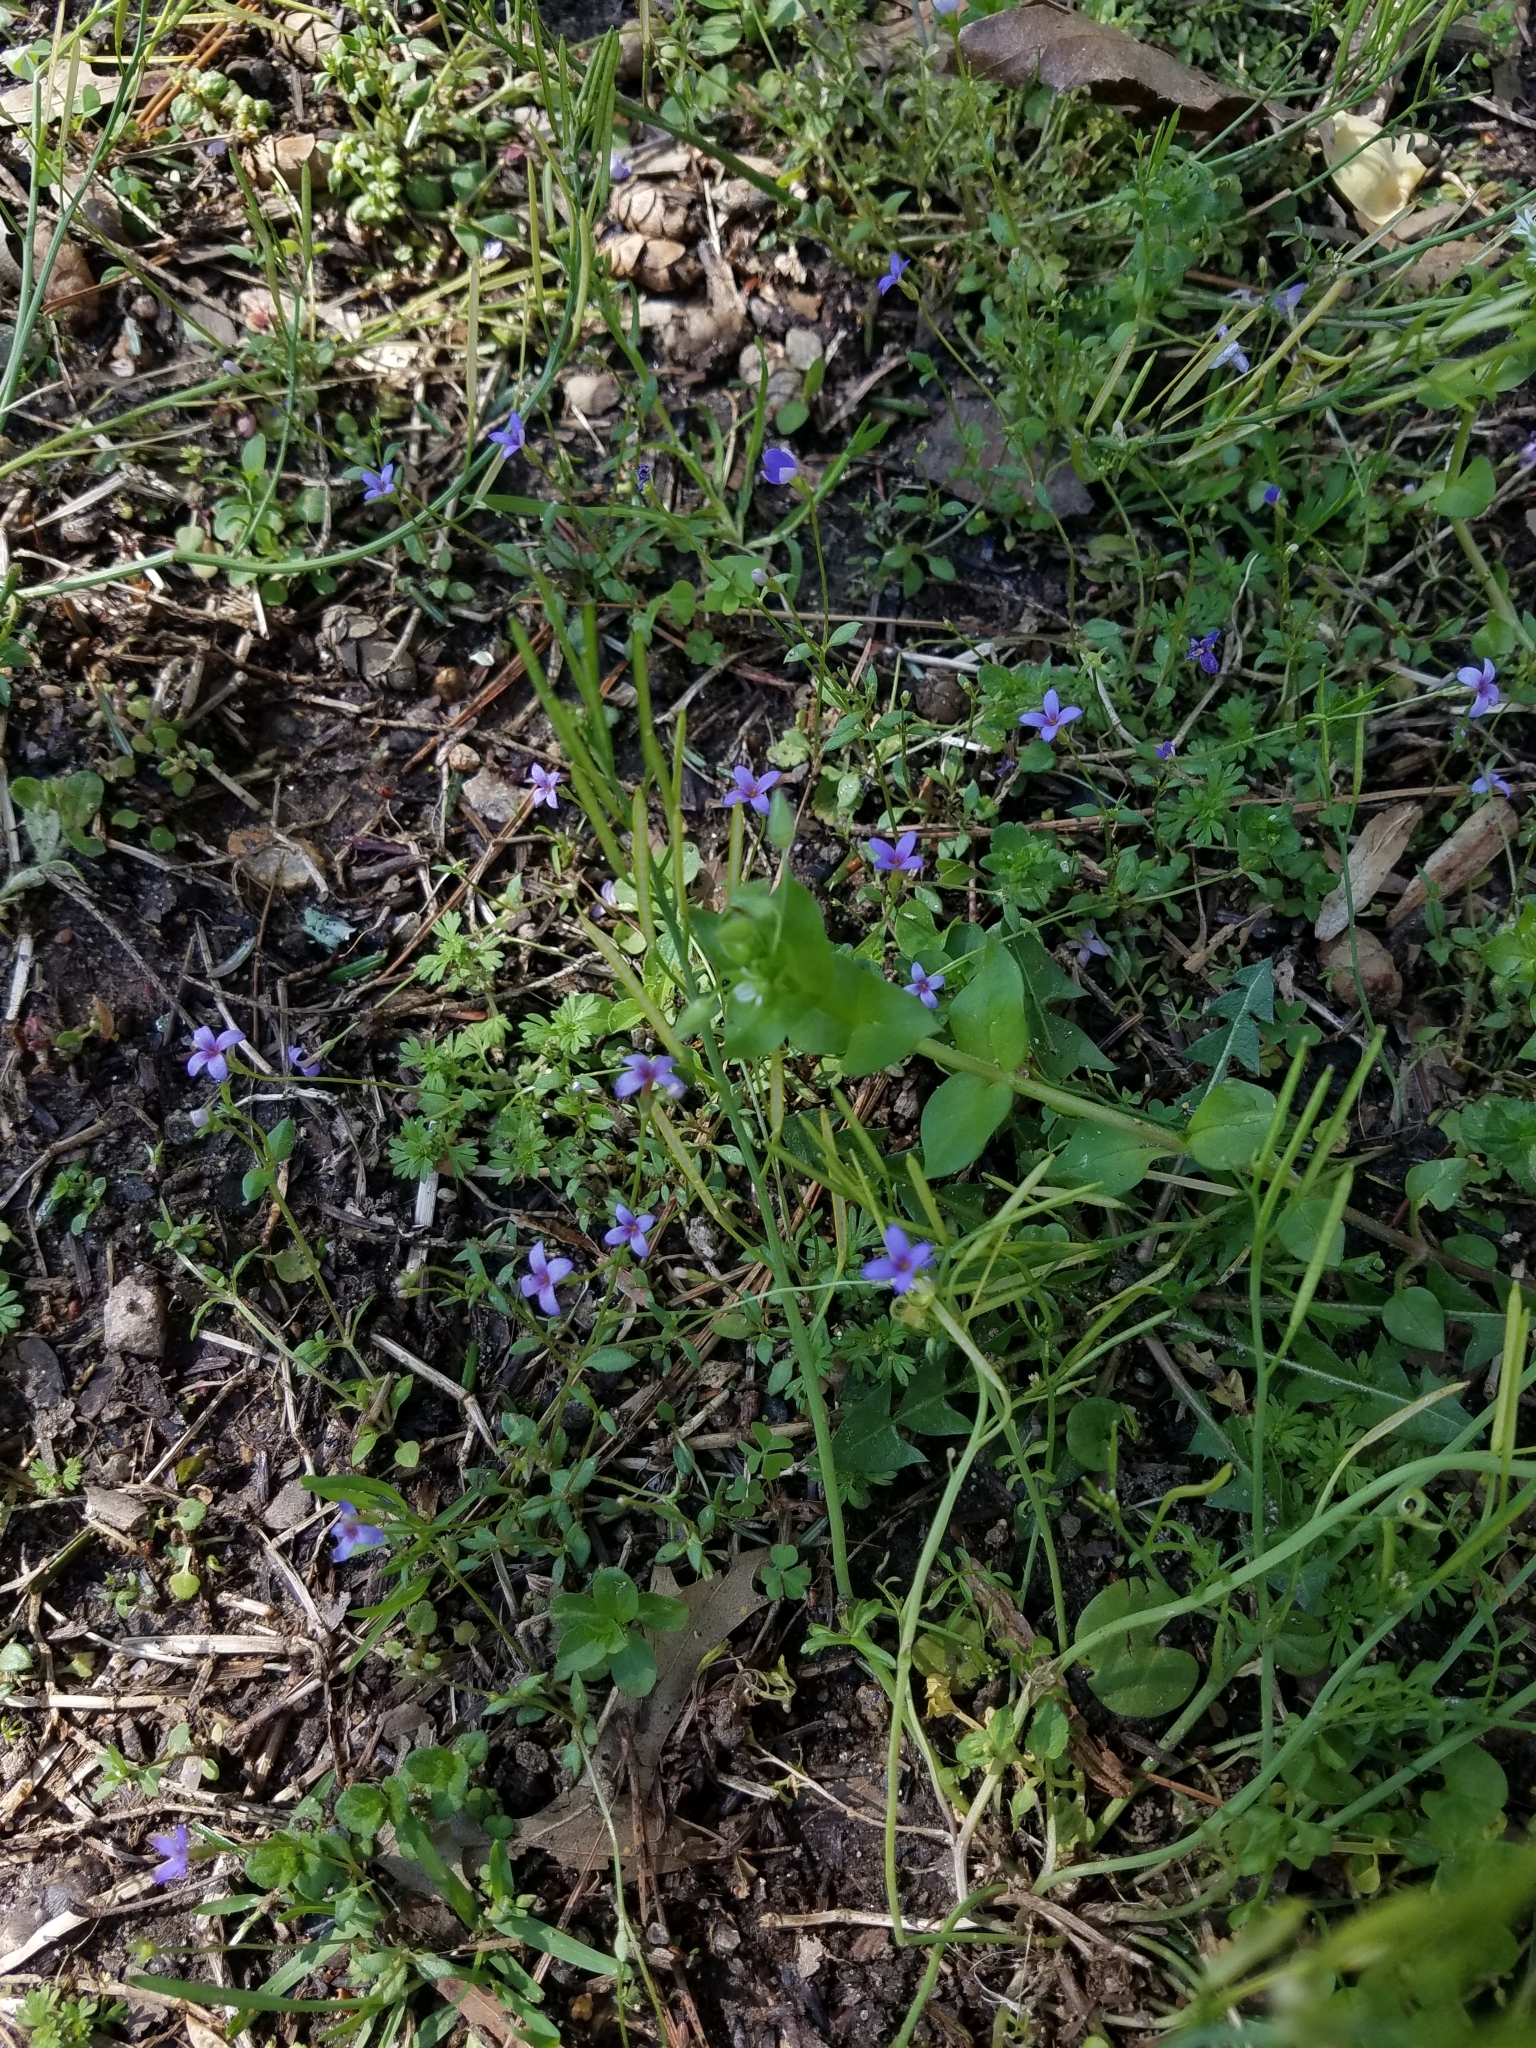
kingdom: Plantae
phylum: Tracheophyta
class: Magnoliopsida
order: Gentianales
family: Rubiaceae
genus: Houstonia
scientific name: Houstonia pusilla
